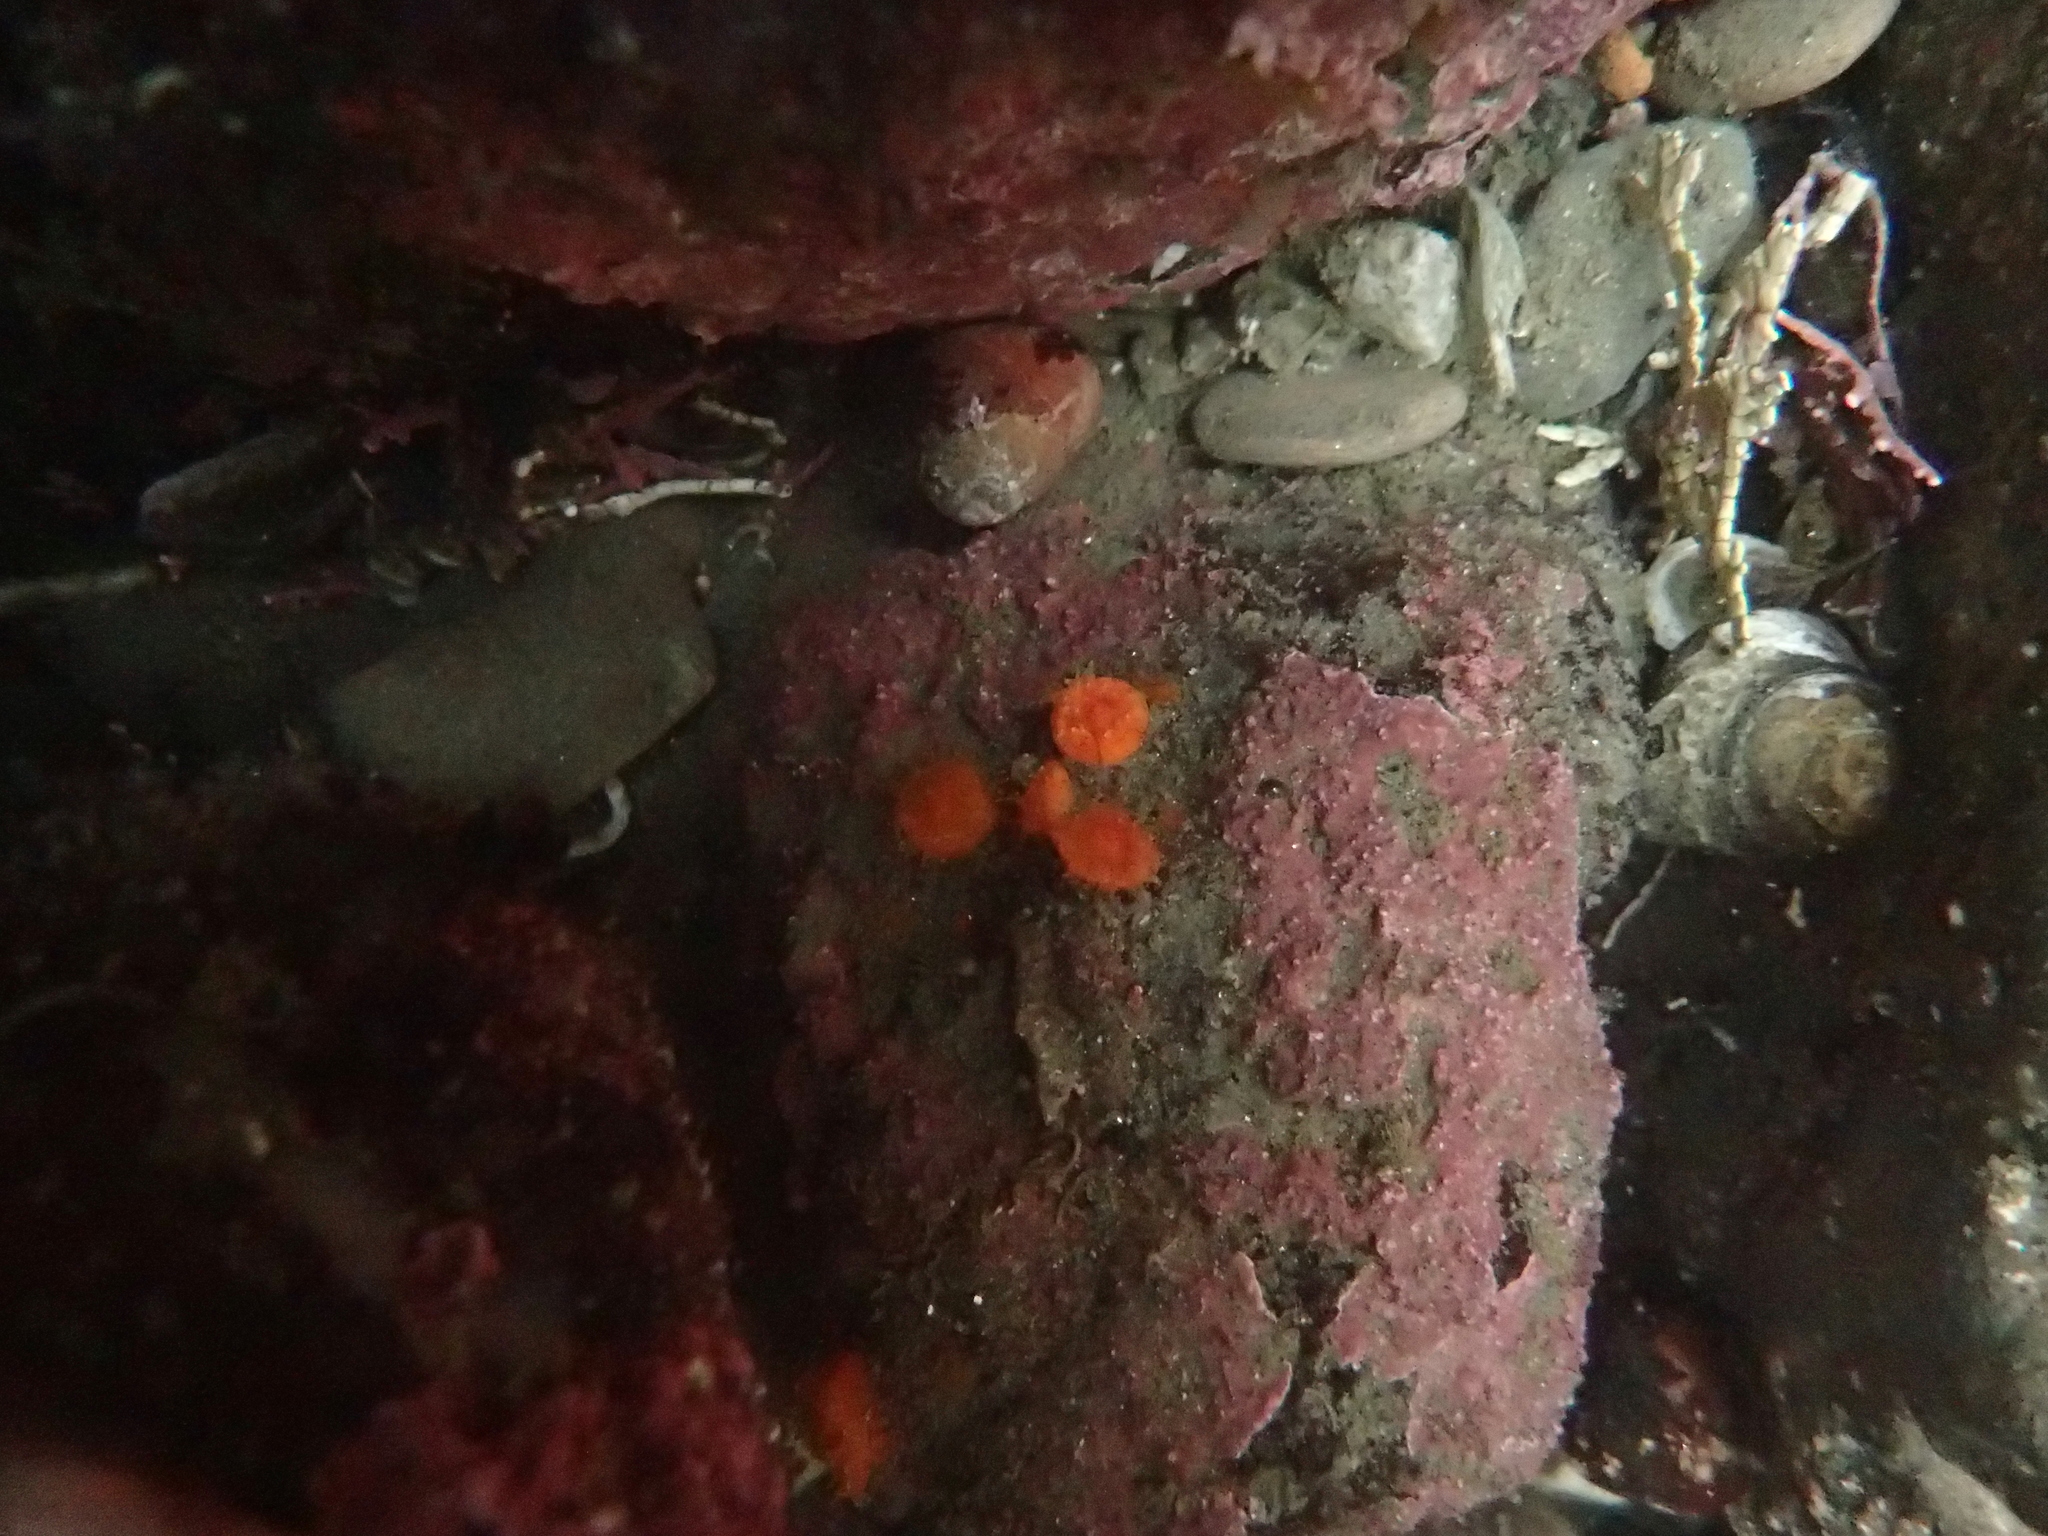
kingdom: Animalia
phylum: Cnidaria
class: Anthozoa
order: Scleractinia
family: Dendrophylliidae
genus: Balanophyllia
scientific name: Balanophyllia elegans
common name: Orange stony coral
